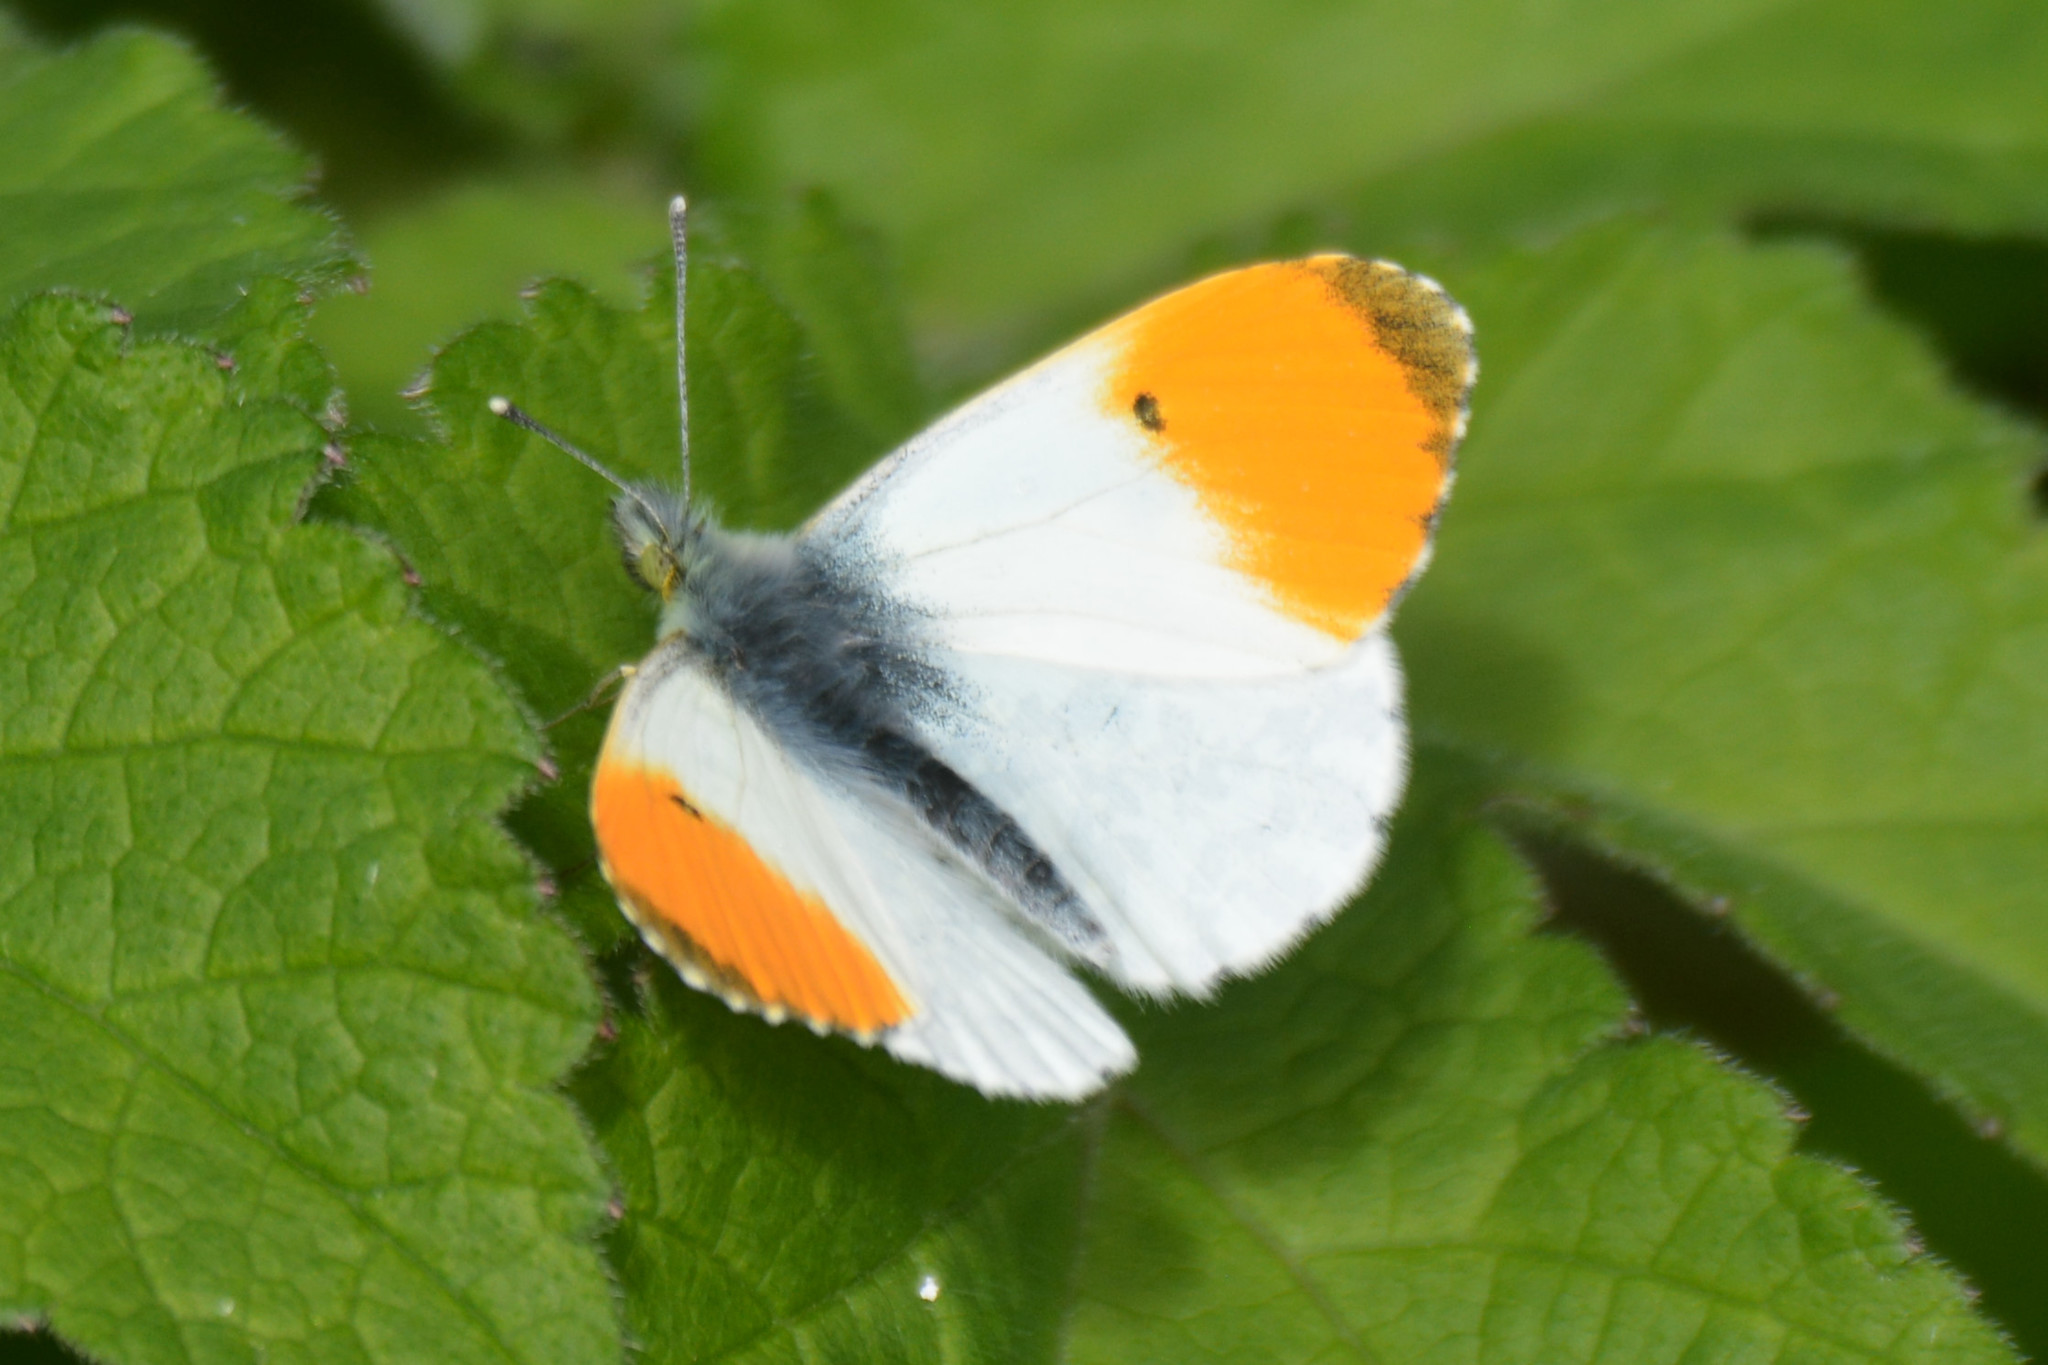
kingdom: Animalia
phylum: Arthropoda
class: Insecta
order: Lepidoptera
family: Pieridae
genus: Anthocharis
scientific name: Anthocharis cardamines
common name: Orange-tip
